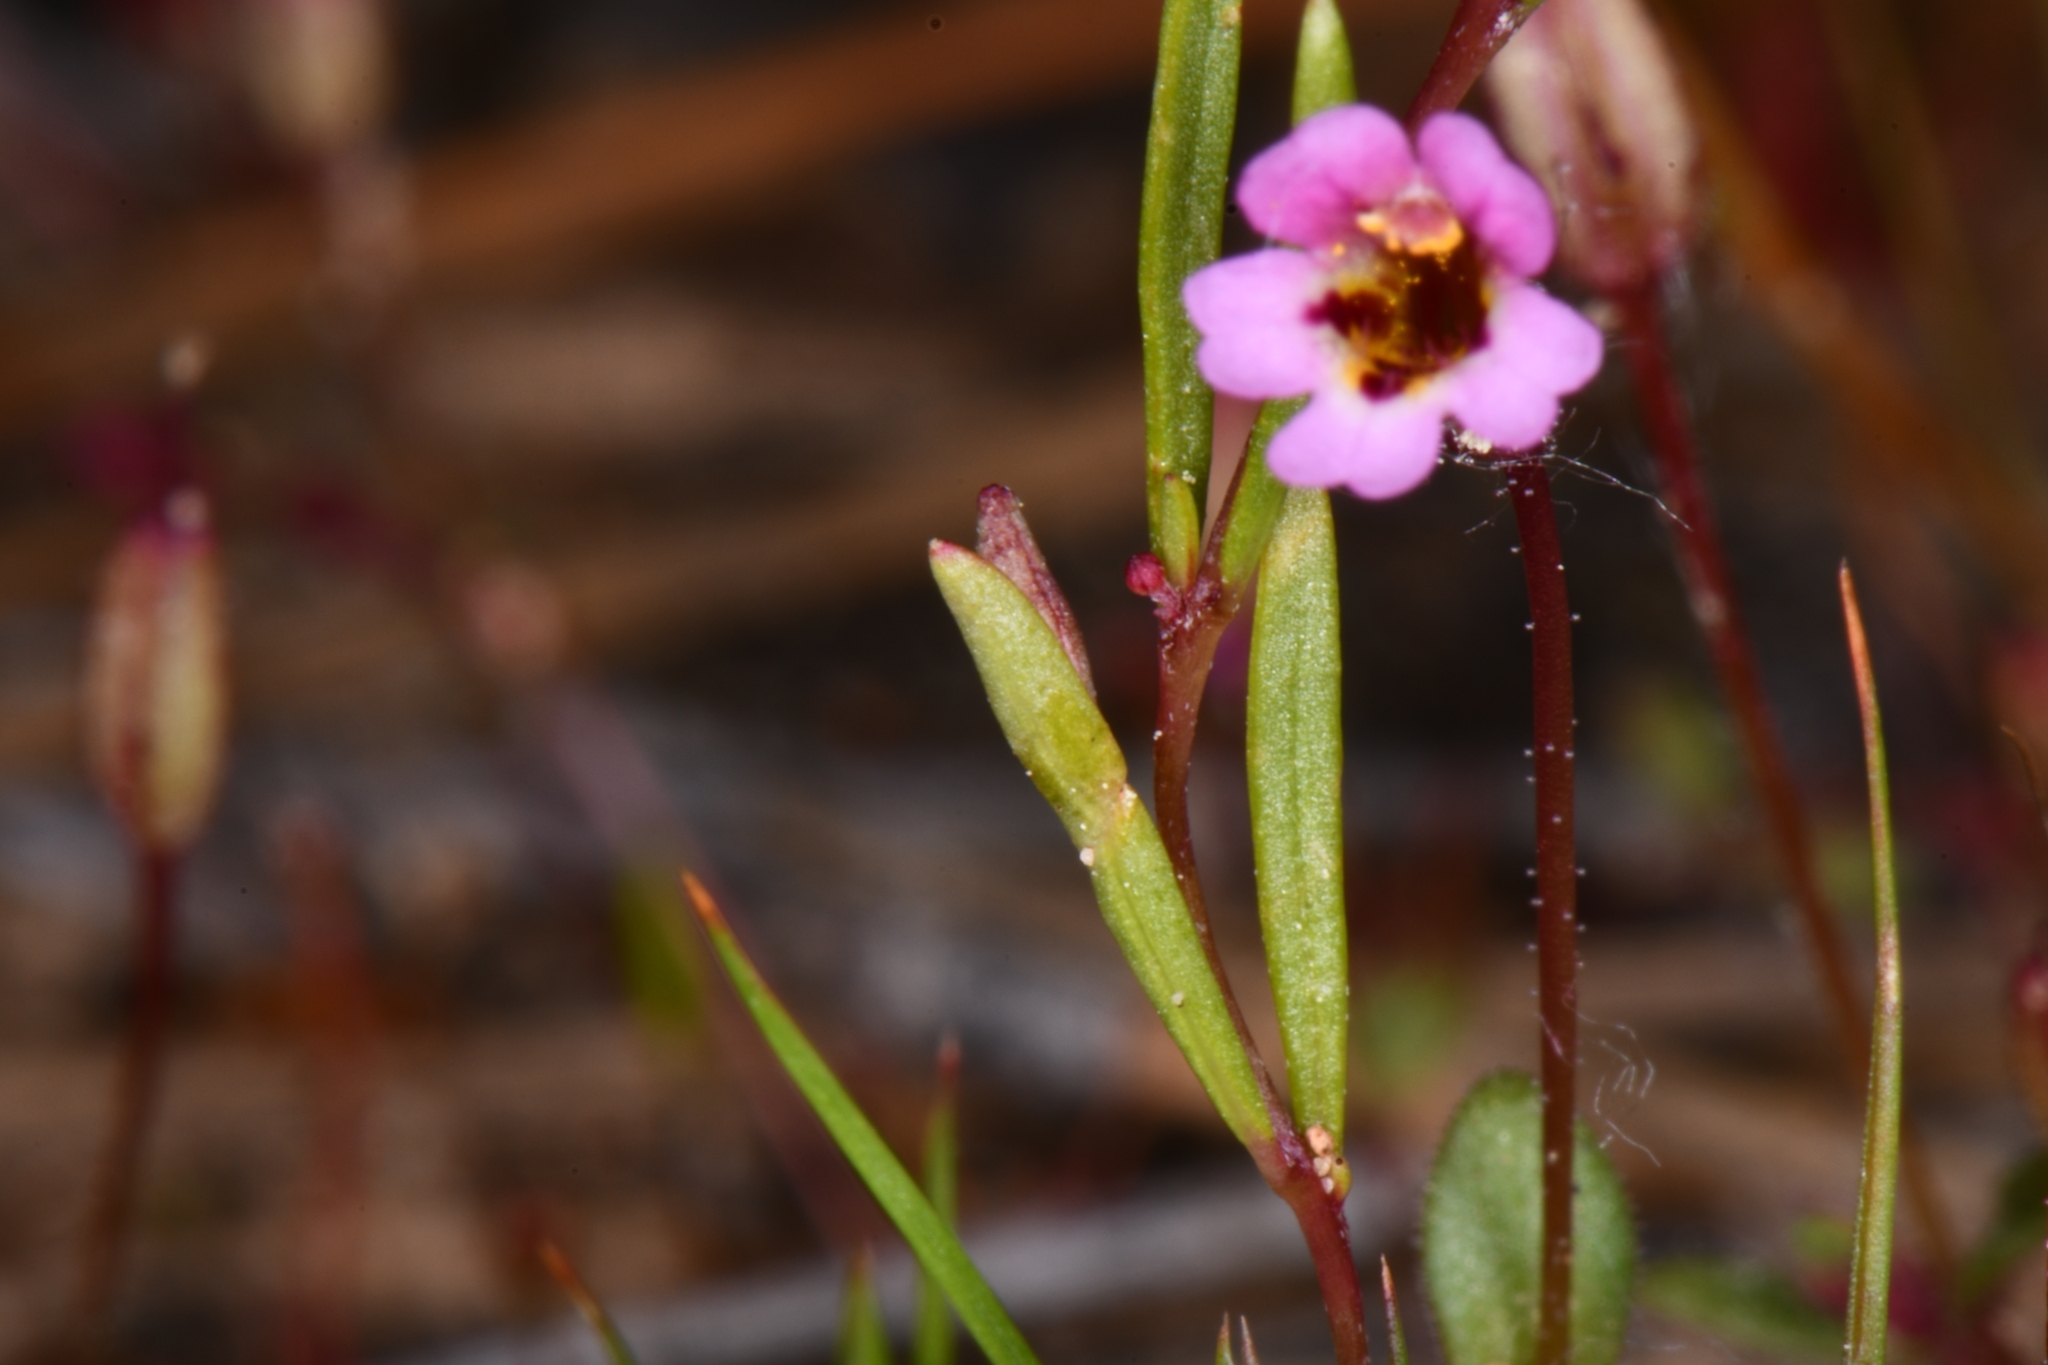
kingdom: Plantae
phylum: Tracheophyta
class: Magnoliopsida
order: Lamiales
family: Phrymaceae
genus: Erythranthe
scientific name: Erythranthe rubella
